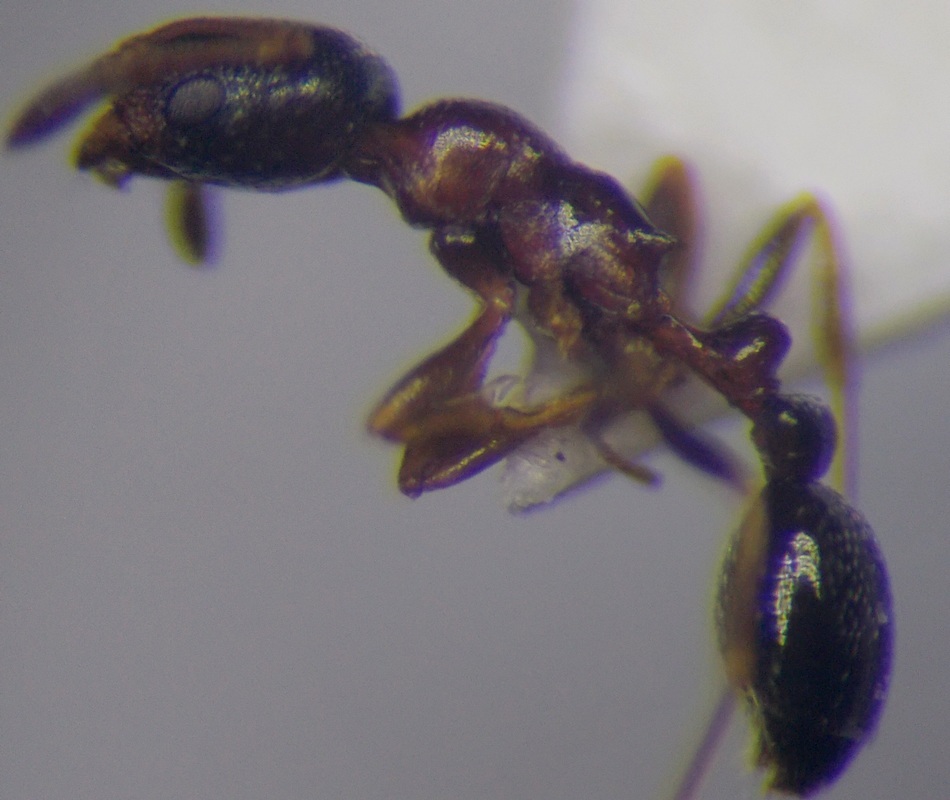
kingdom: Animalia
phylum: Arthropoda
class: Insecta
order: Hymenoptera
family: Formicidae
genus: Cardiocondyla
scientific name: Cardiocondyla sahlbergi
